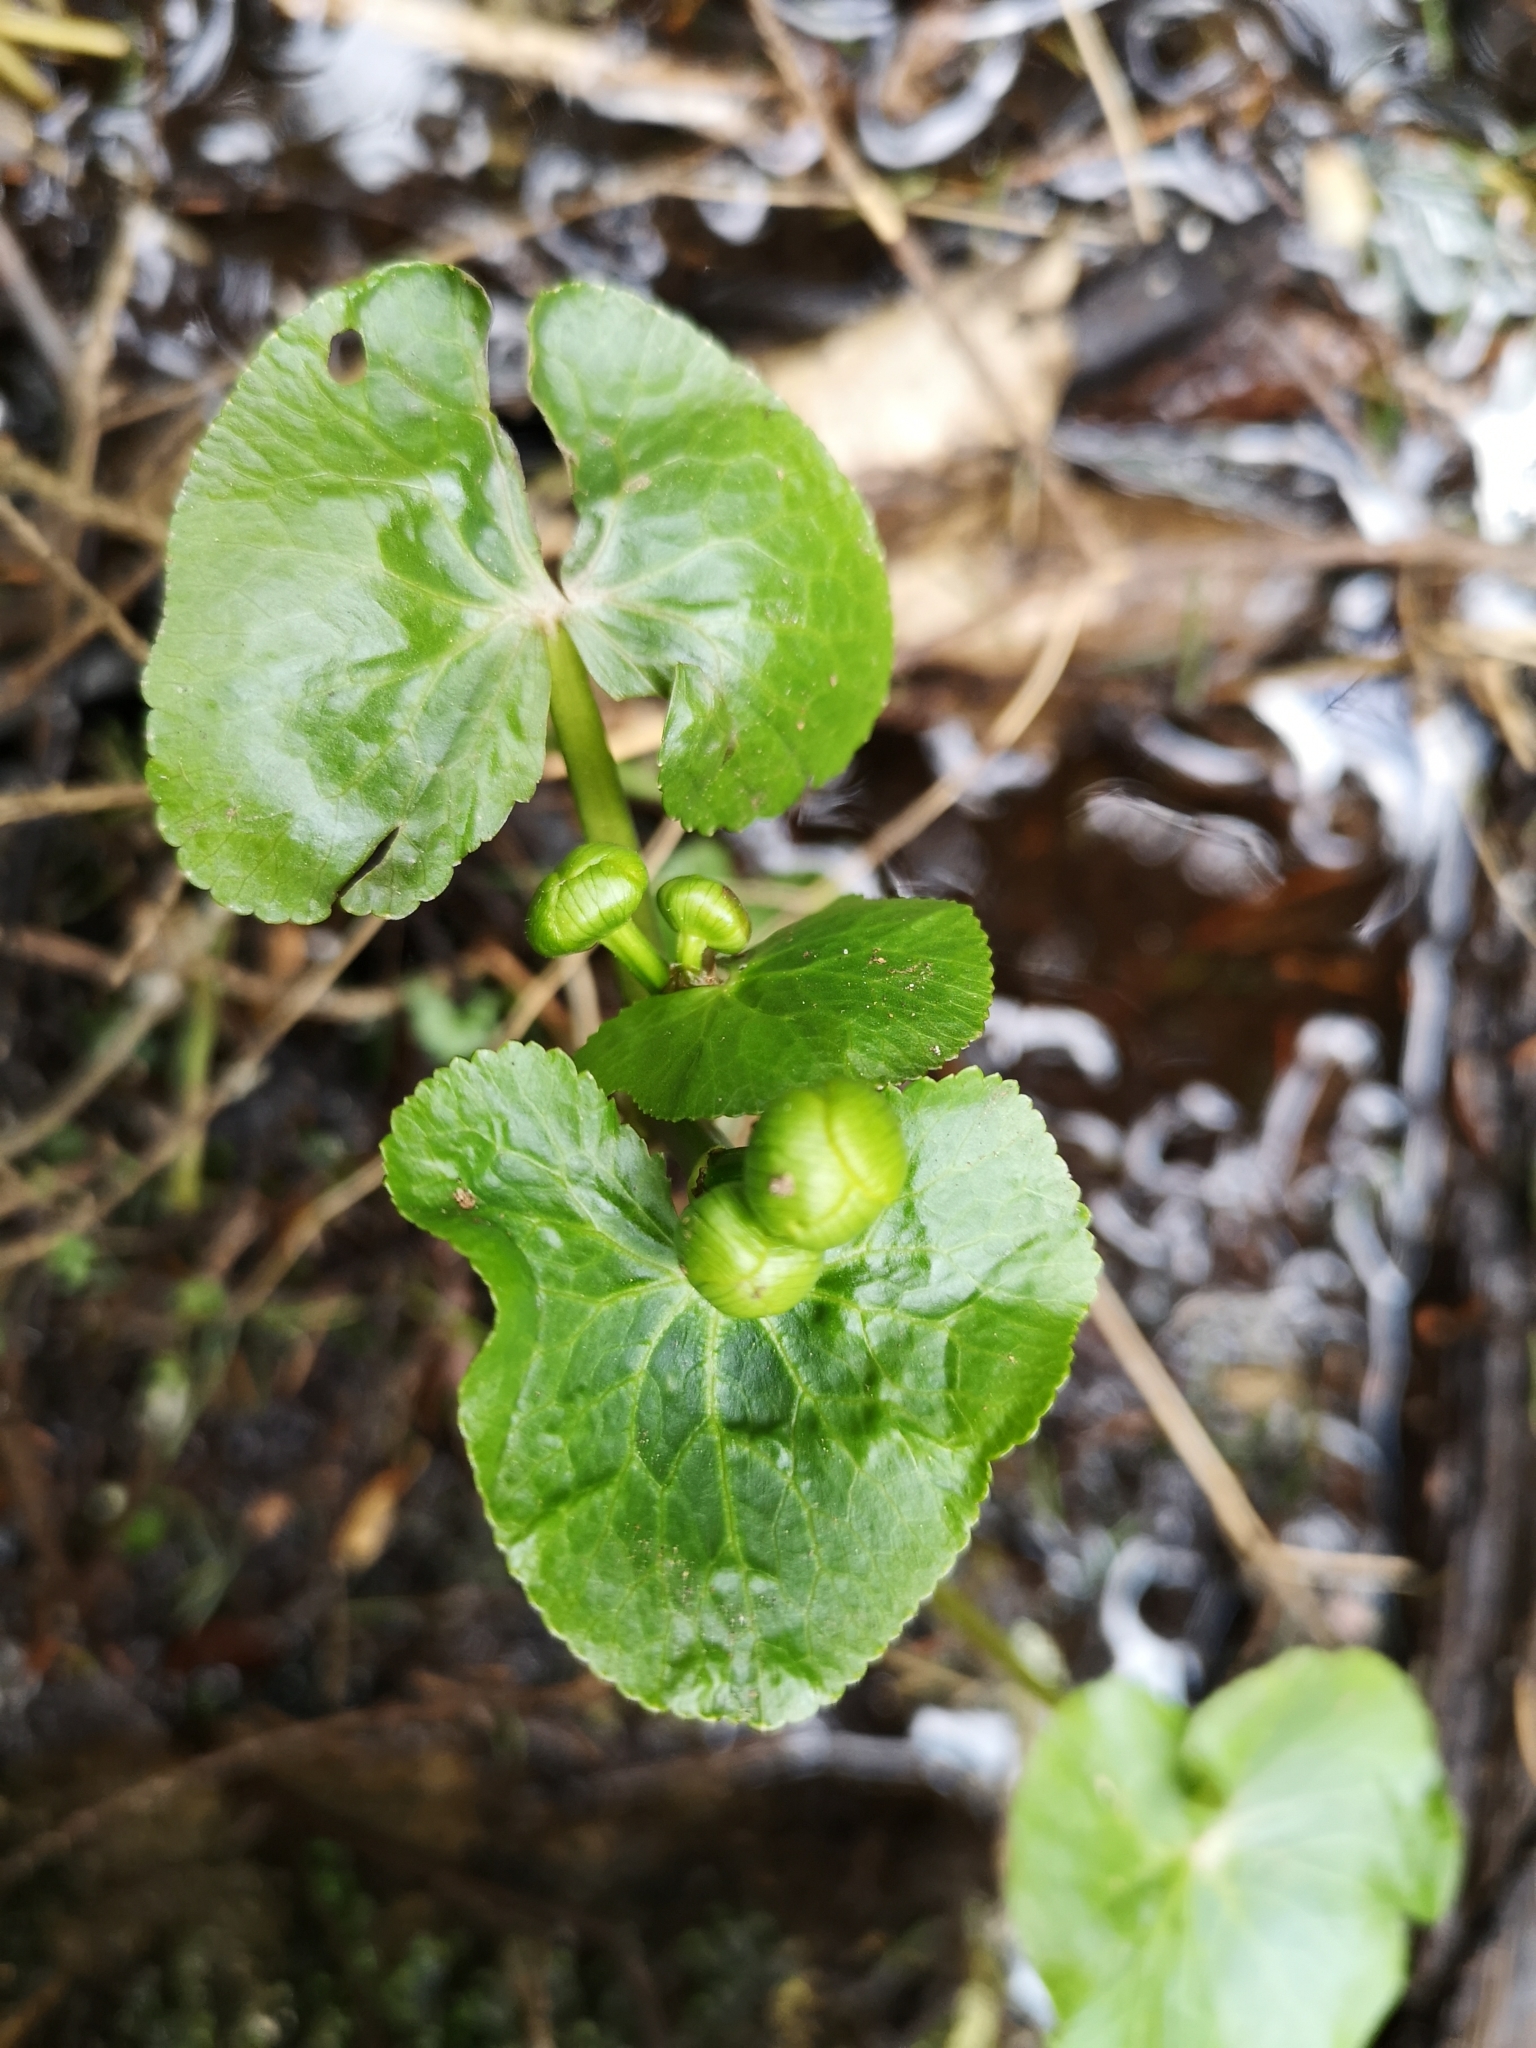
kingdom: Plantae
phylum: Tracheophyta
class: Magnoliopsida
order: Ranunculales
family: Ranunculaceae
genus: Caltha
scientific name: Caltha palustris
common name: Marsh marigold
